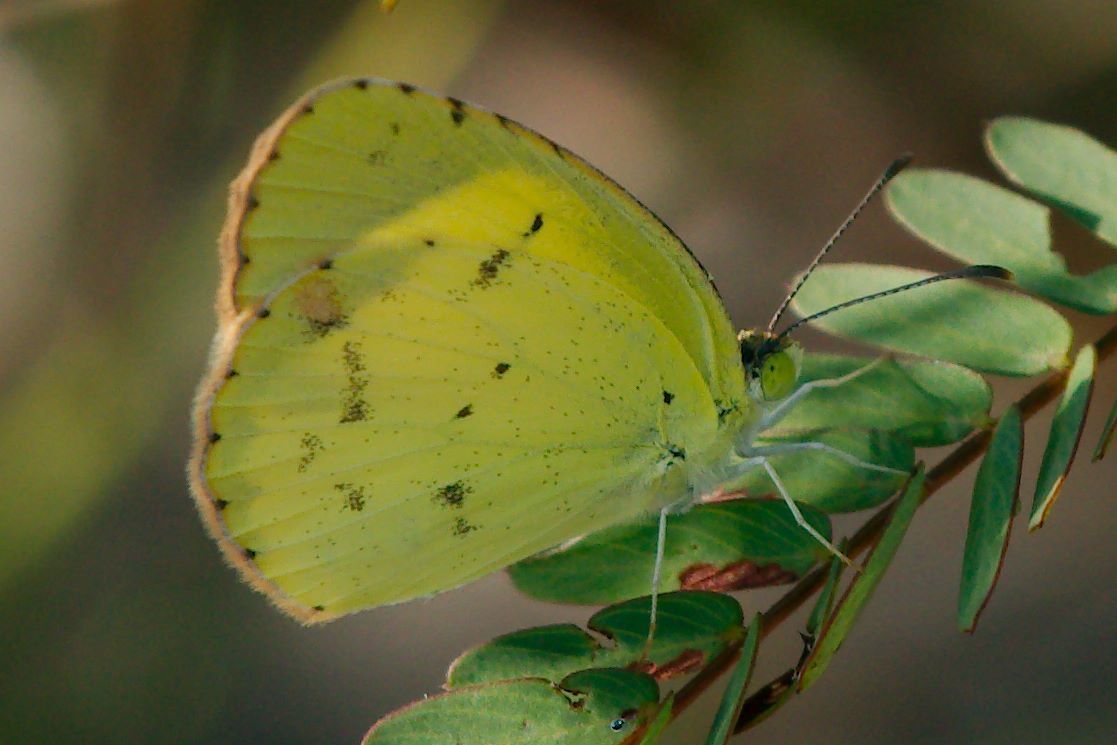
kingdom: Animalia
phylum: Arthropoda
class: Insecta
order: Lepidoptera
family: Pieridae
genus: Pyrisitia
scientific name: Pyrisitia lisa
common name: Little yellow
